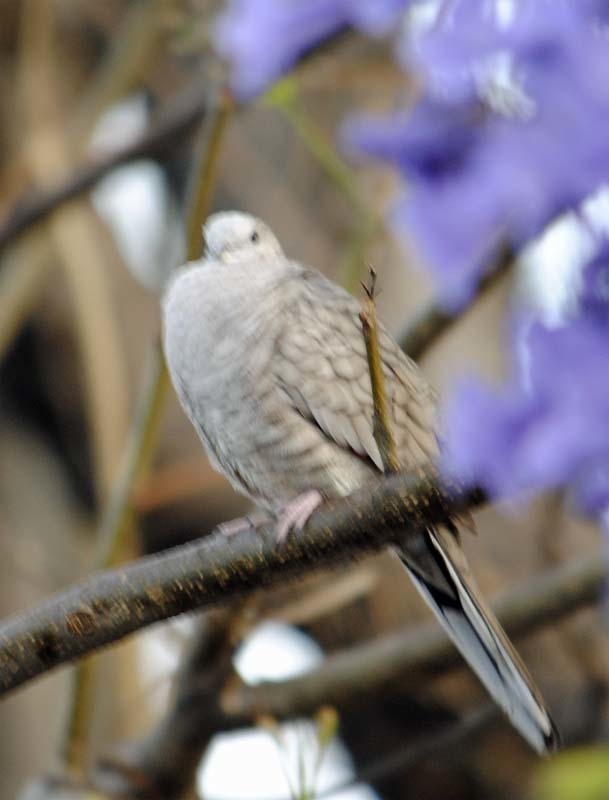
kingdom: Animalia
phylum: Chordata
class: Aves
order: Columbiformes
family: Columbidae
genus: Columbina
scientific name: Columbina inca
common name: Inca dove
